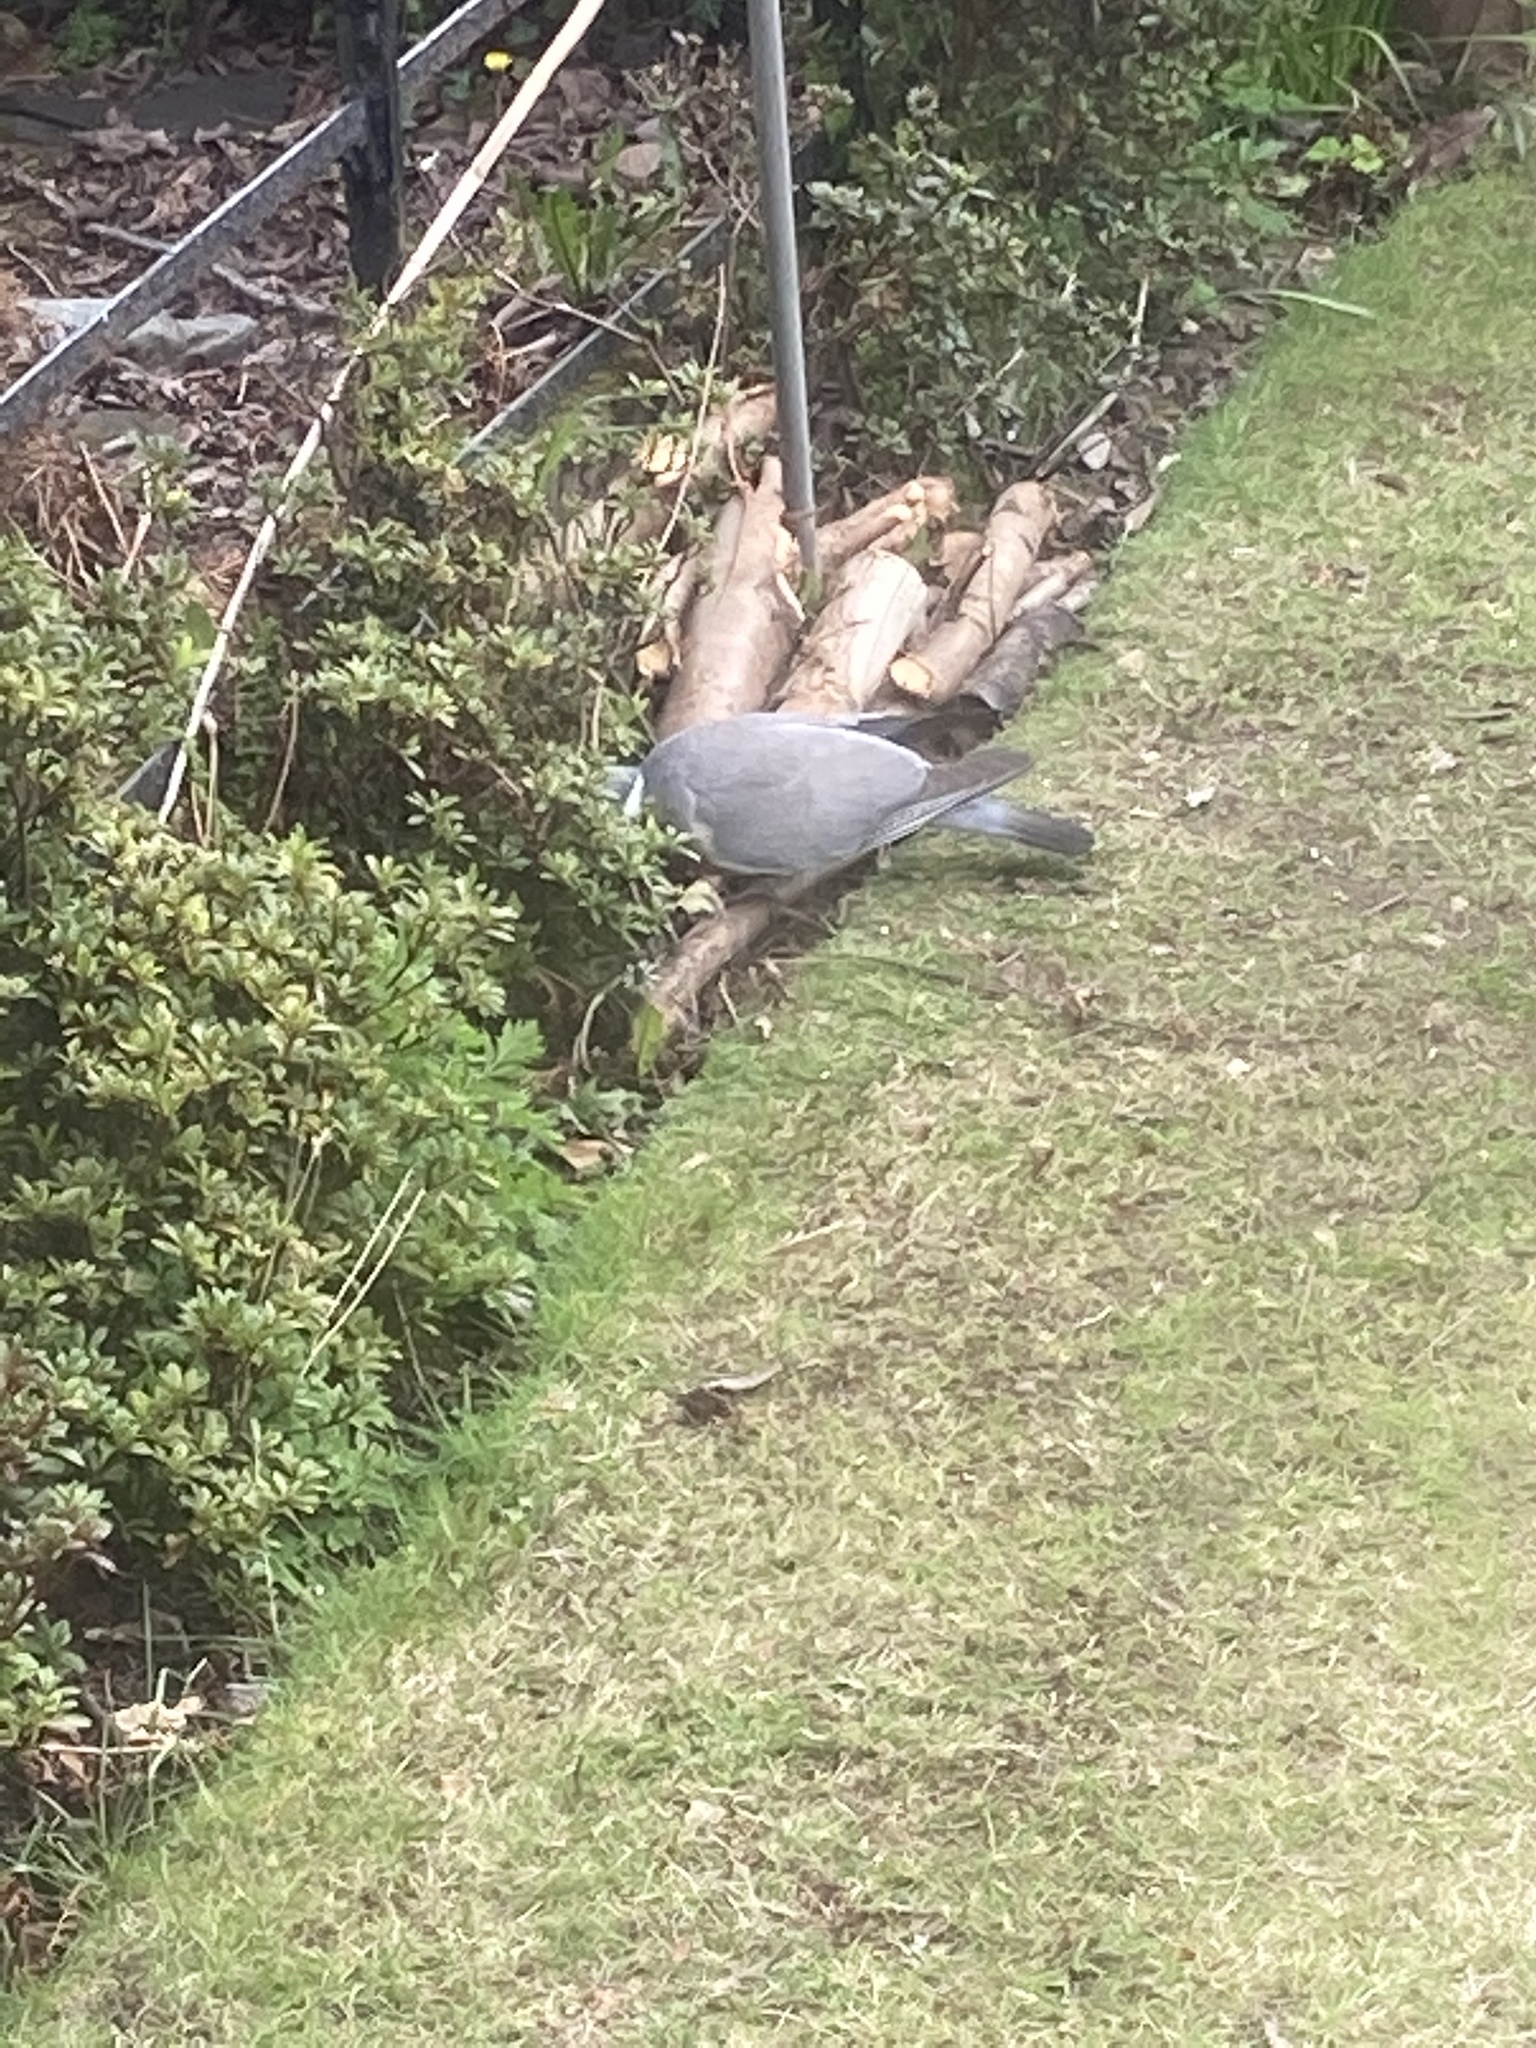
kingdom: Animalia
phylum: Chordata
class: Aves
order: Columbiformes
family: Columbidae
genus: Columba
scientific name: Columba palumbus
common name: Common wood pigeon
